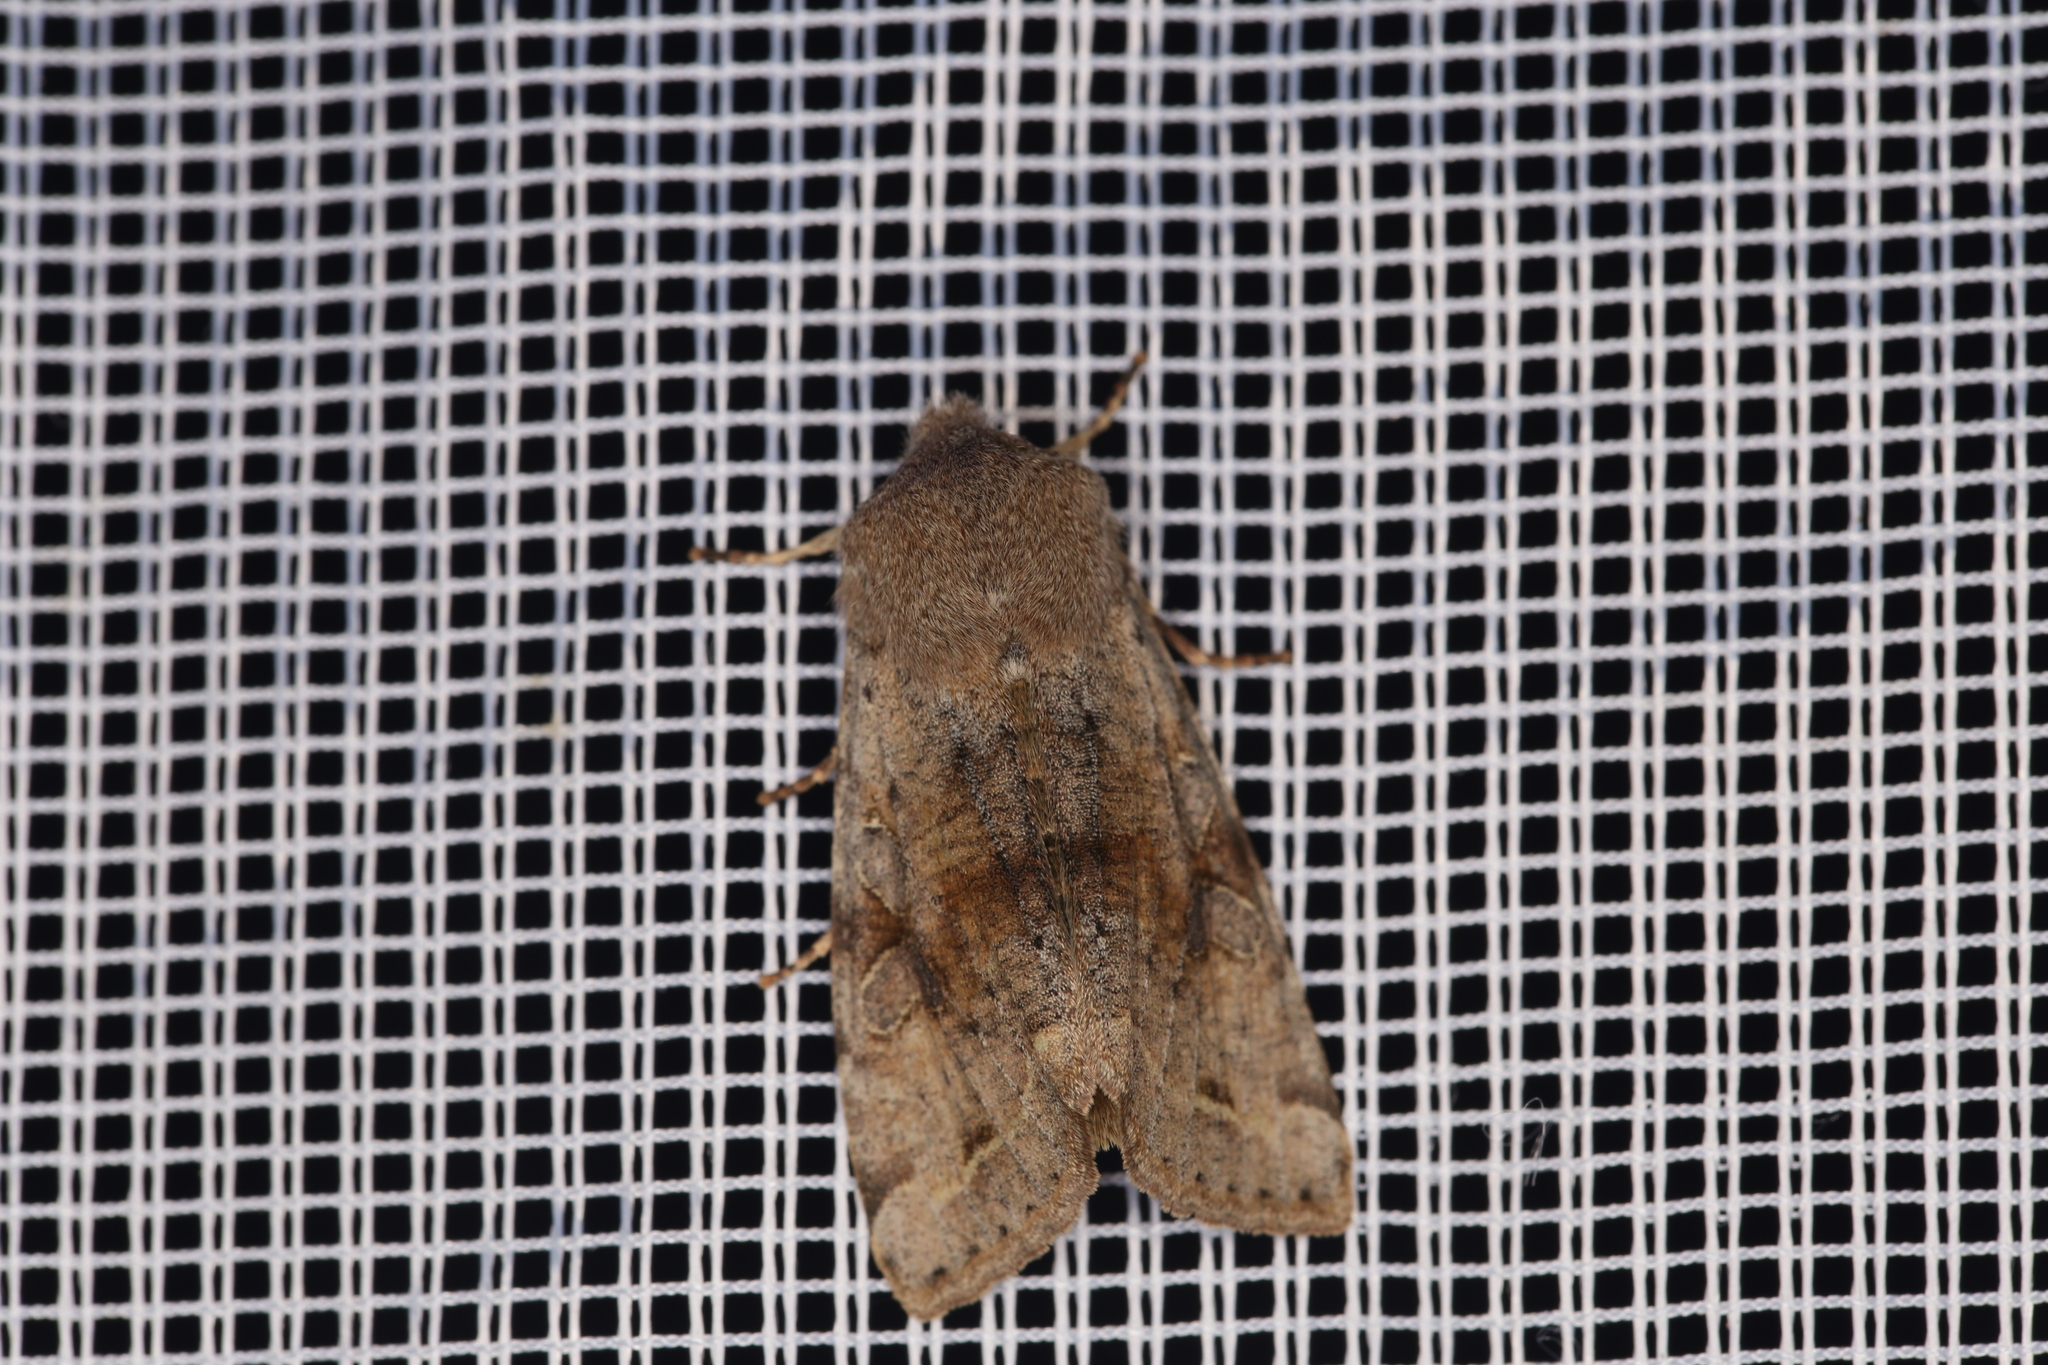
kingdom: Animalia
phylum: Arthropoda
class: Insecta
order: Lepidoptera
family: Noctuidae
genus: Orthosia
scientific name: Orthosia incerta
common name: Clouded drab
